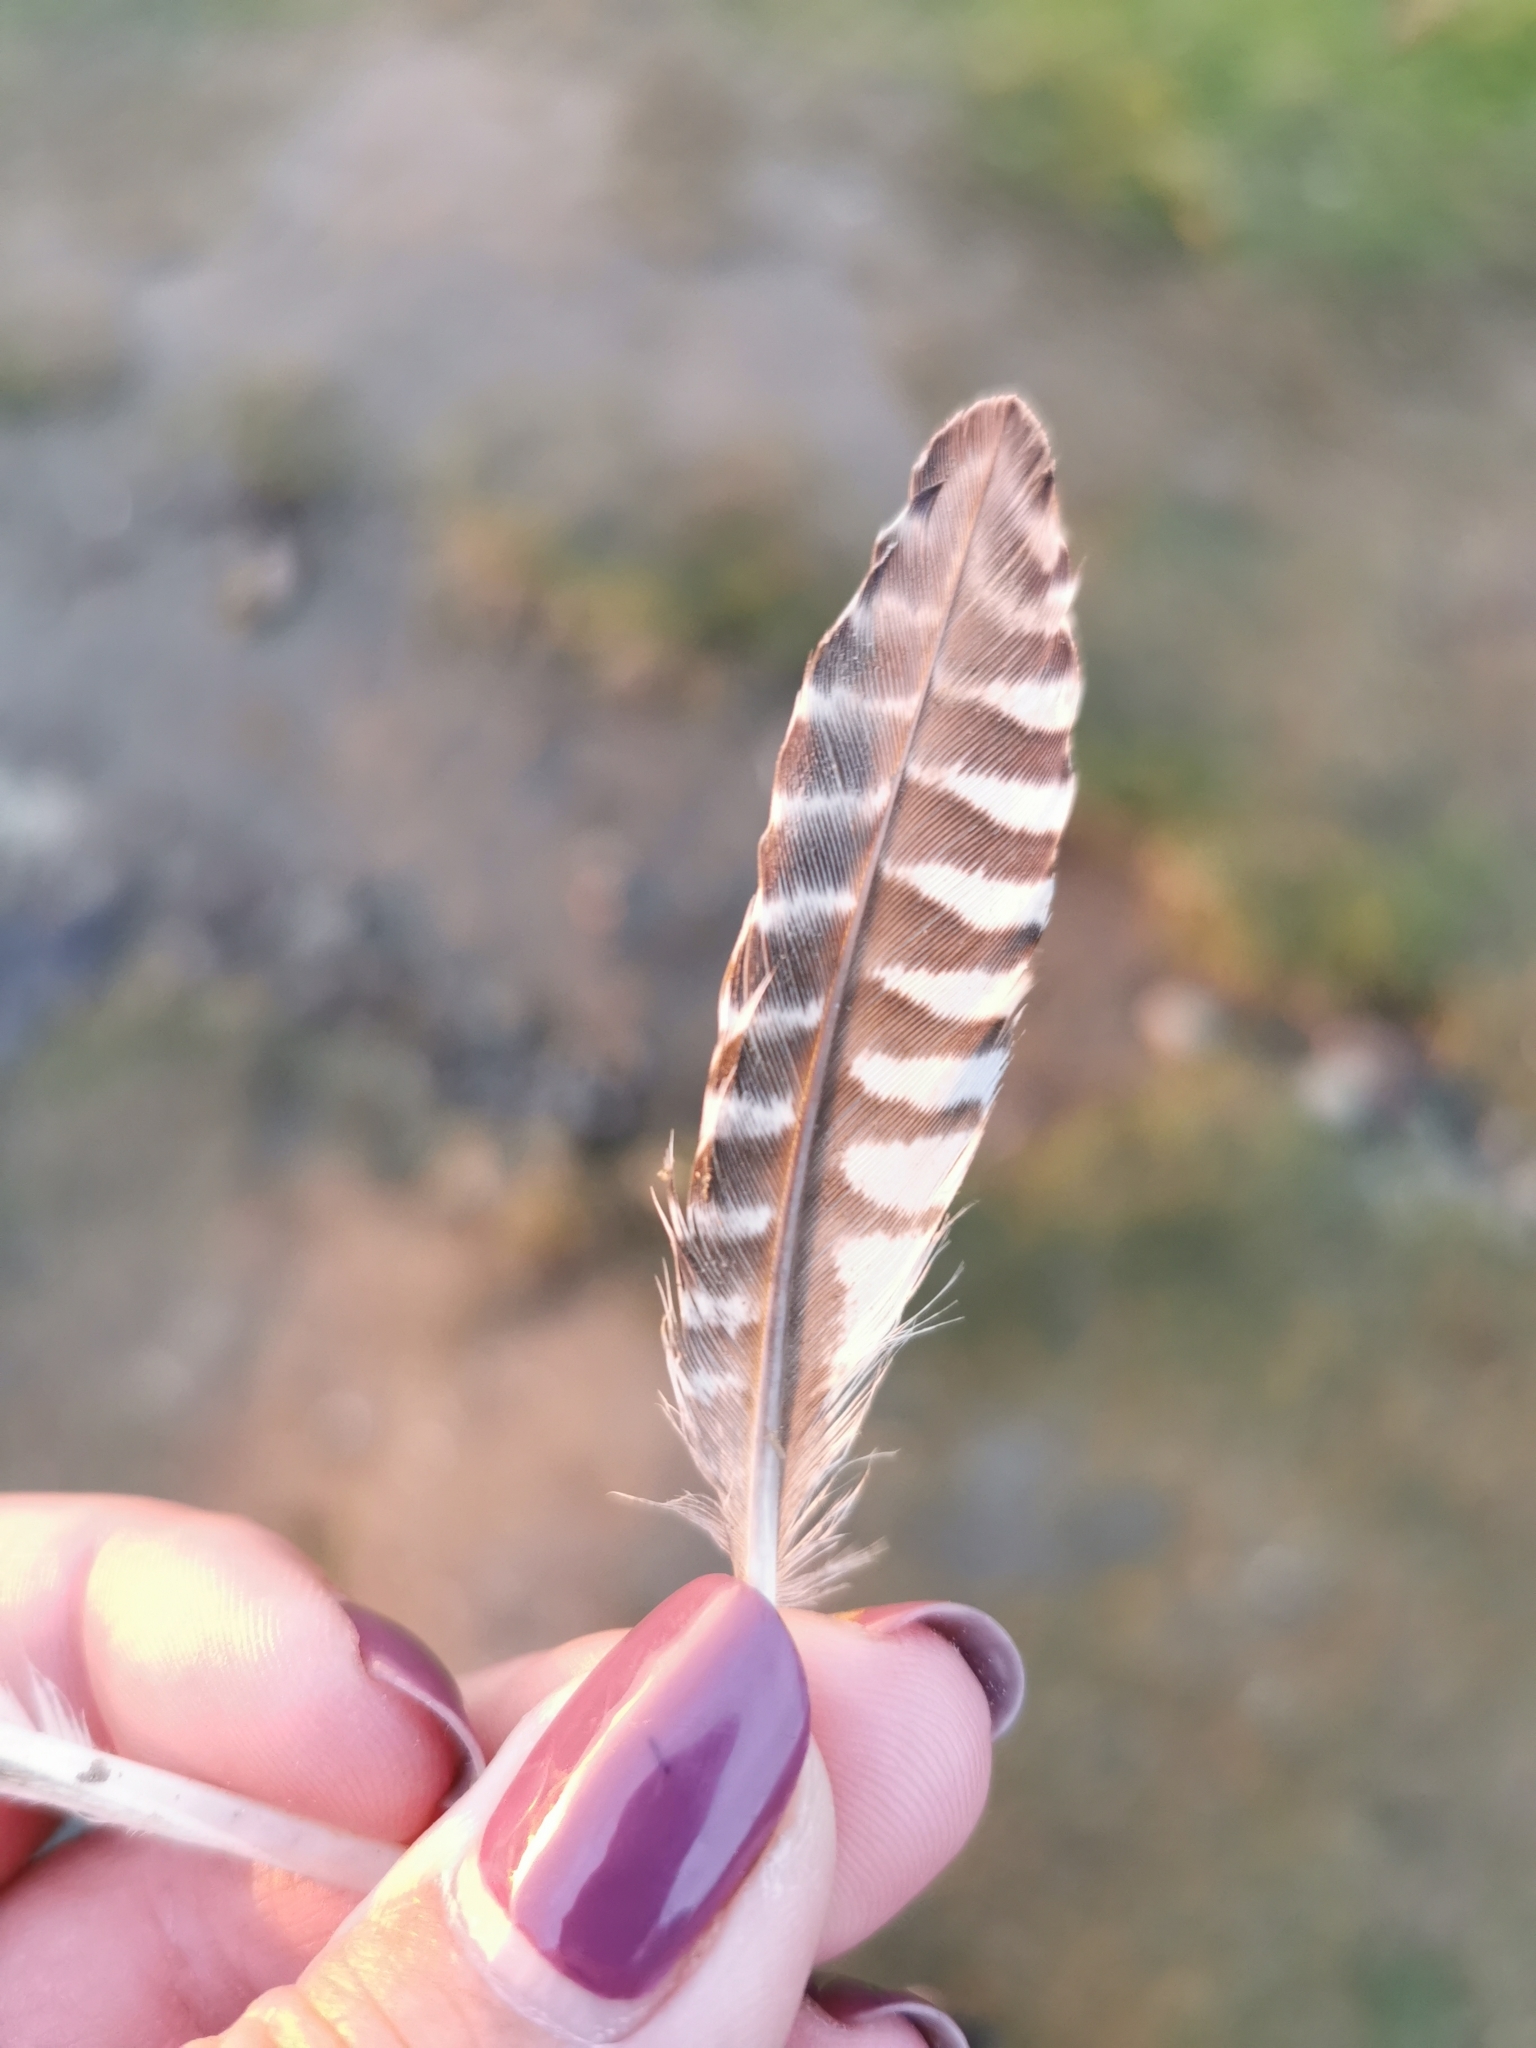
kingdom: Animalia
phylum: Chordata
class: Aves
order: Charadriiformes
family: Scolopacidae
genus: Tringa
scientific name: Tringa erythropus
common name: Spotted redshank
